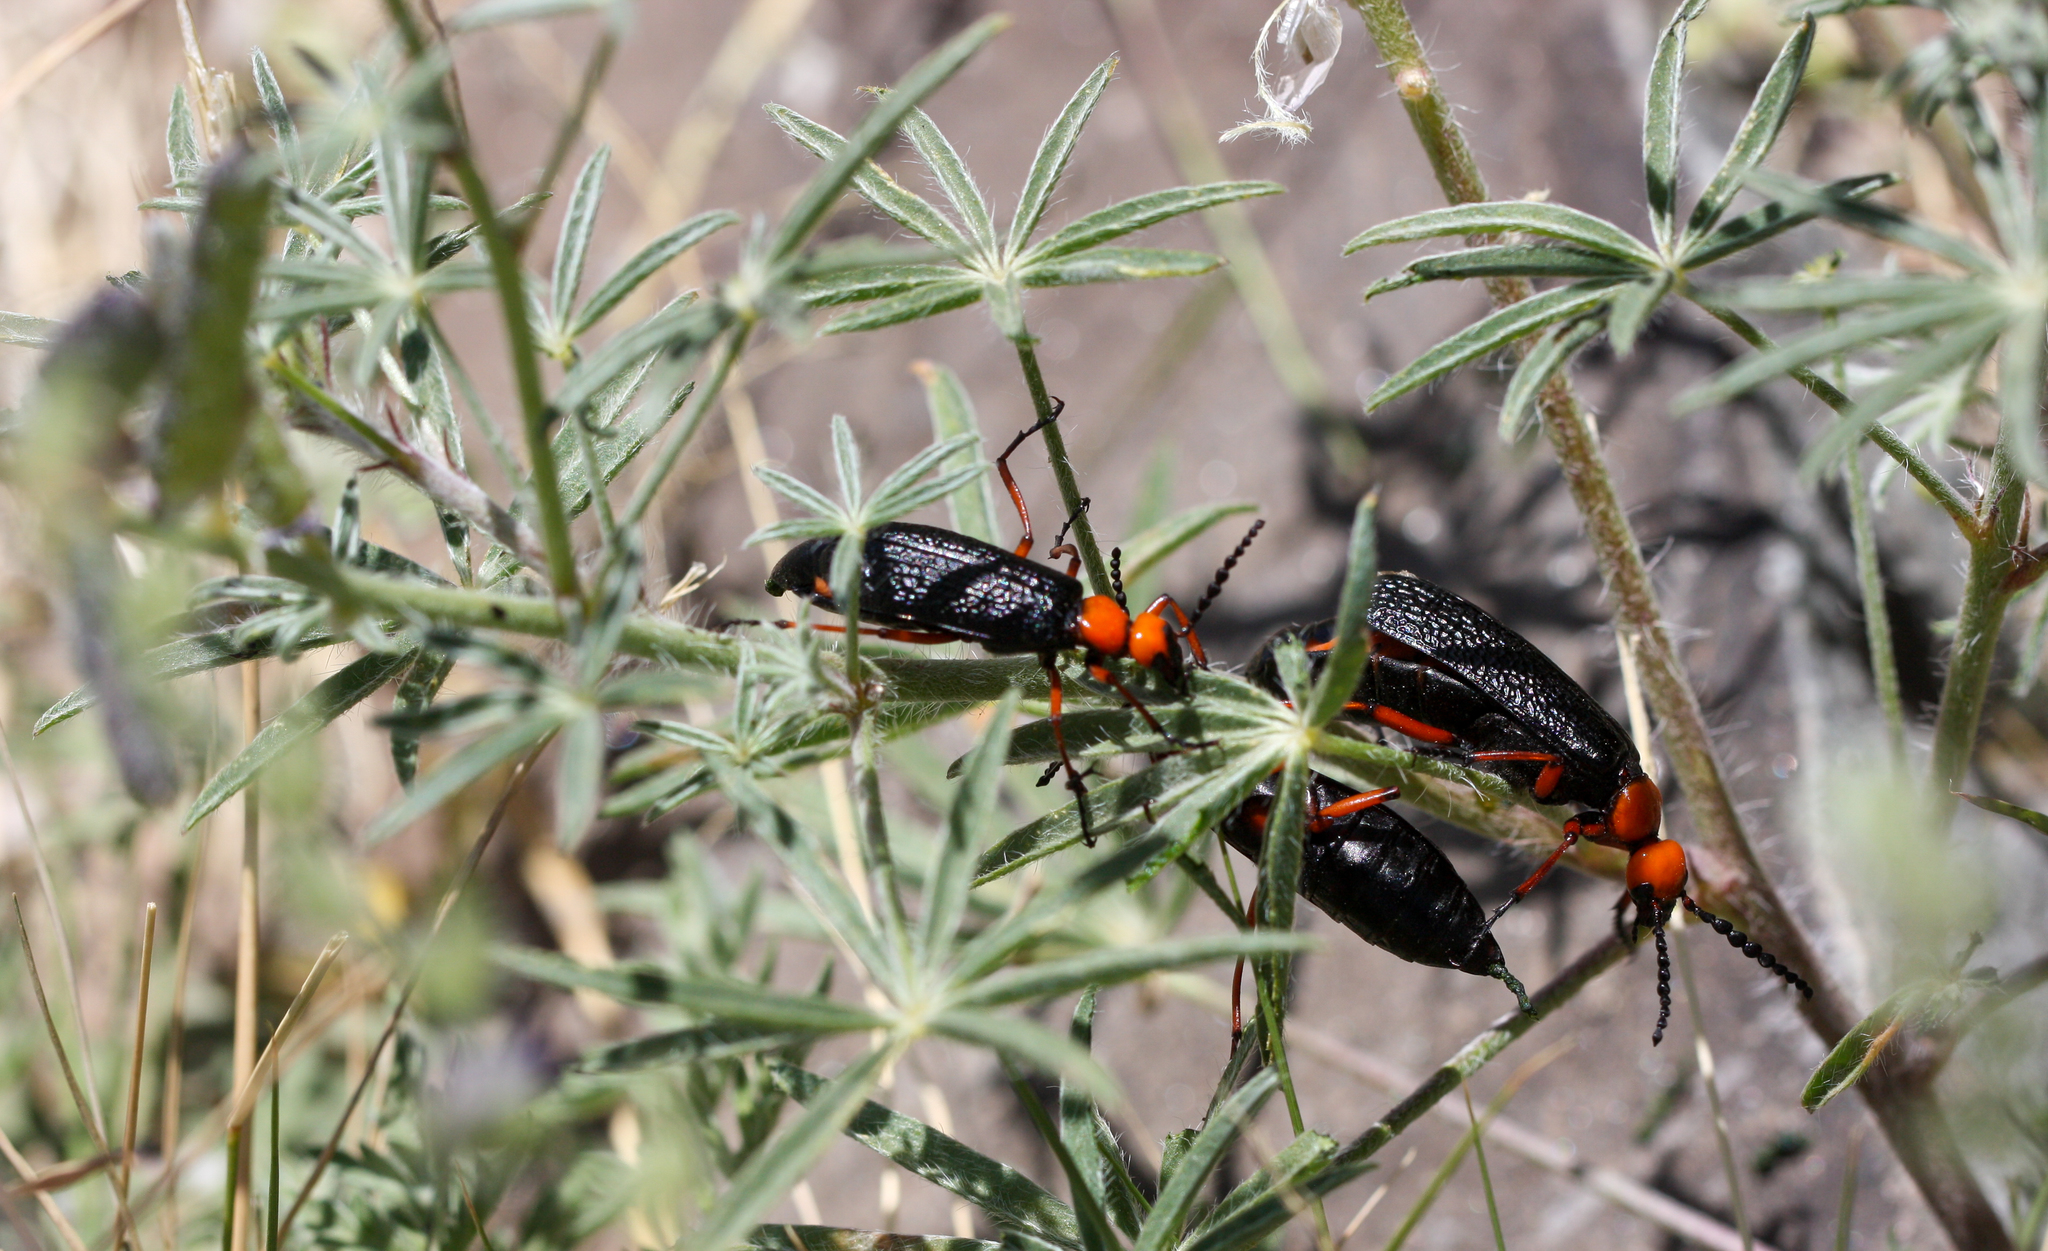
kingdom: Animalia
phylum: Arthropoda
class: Insecta
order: Coleoptera
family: Meloidae
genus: Lytta
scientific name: Lytta magister
